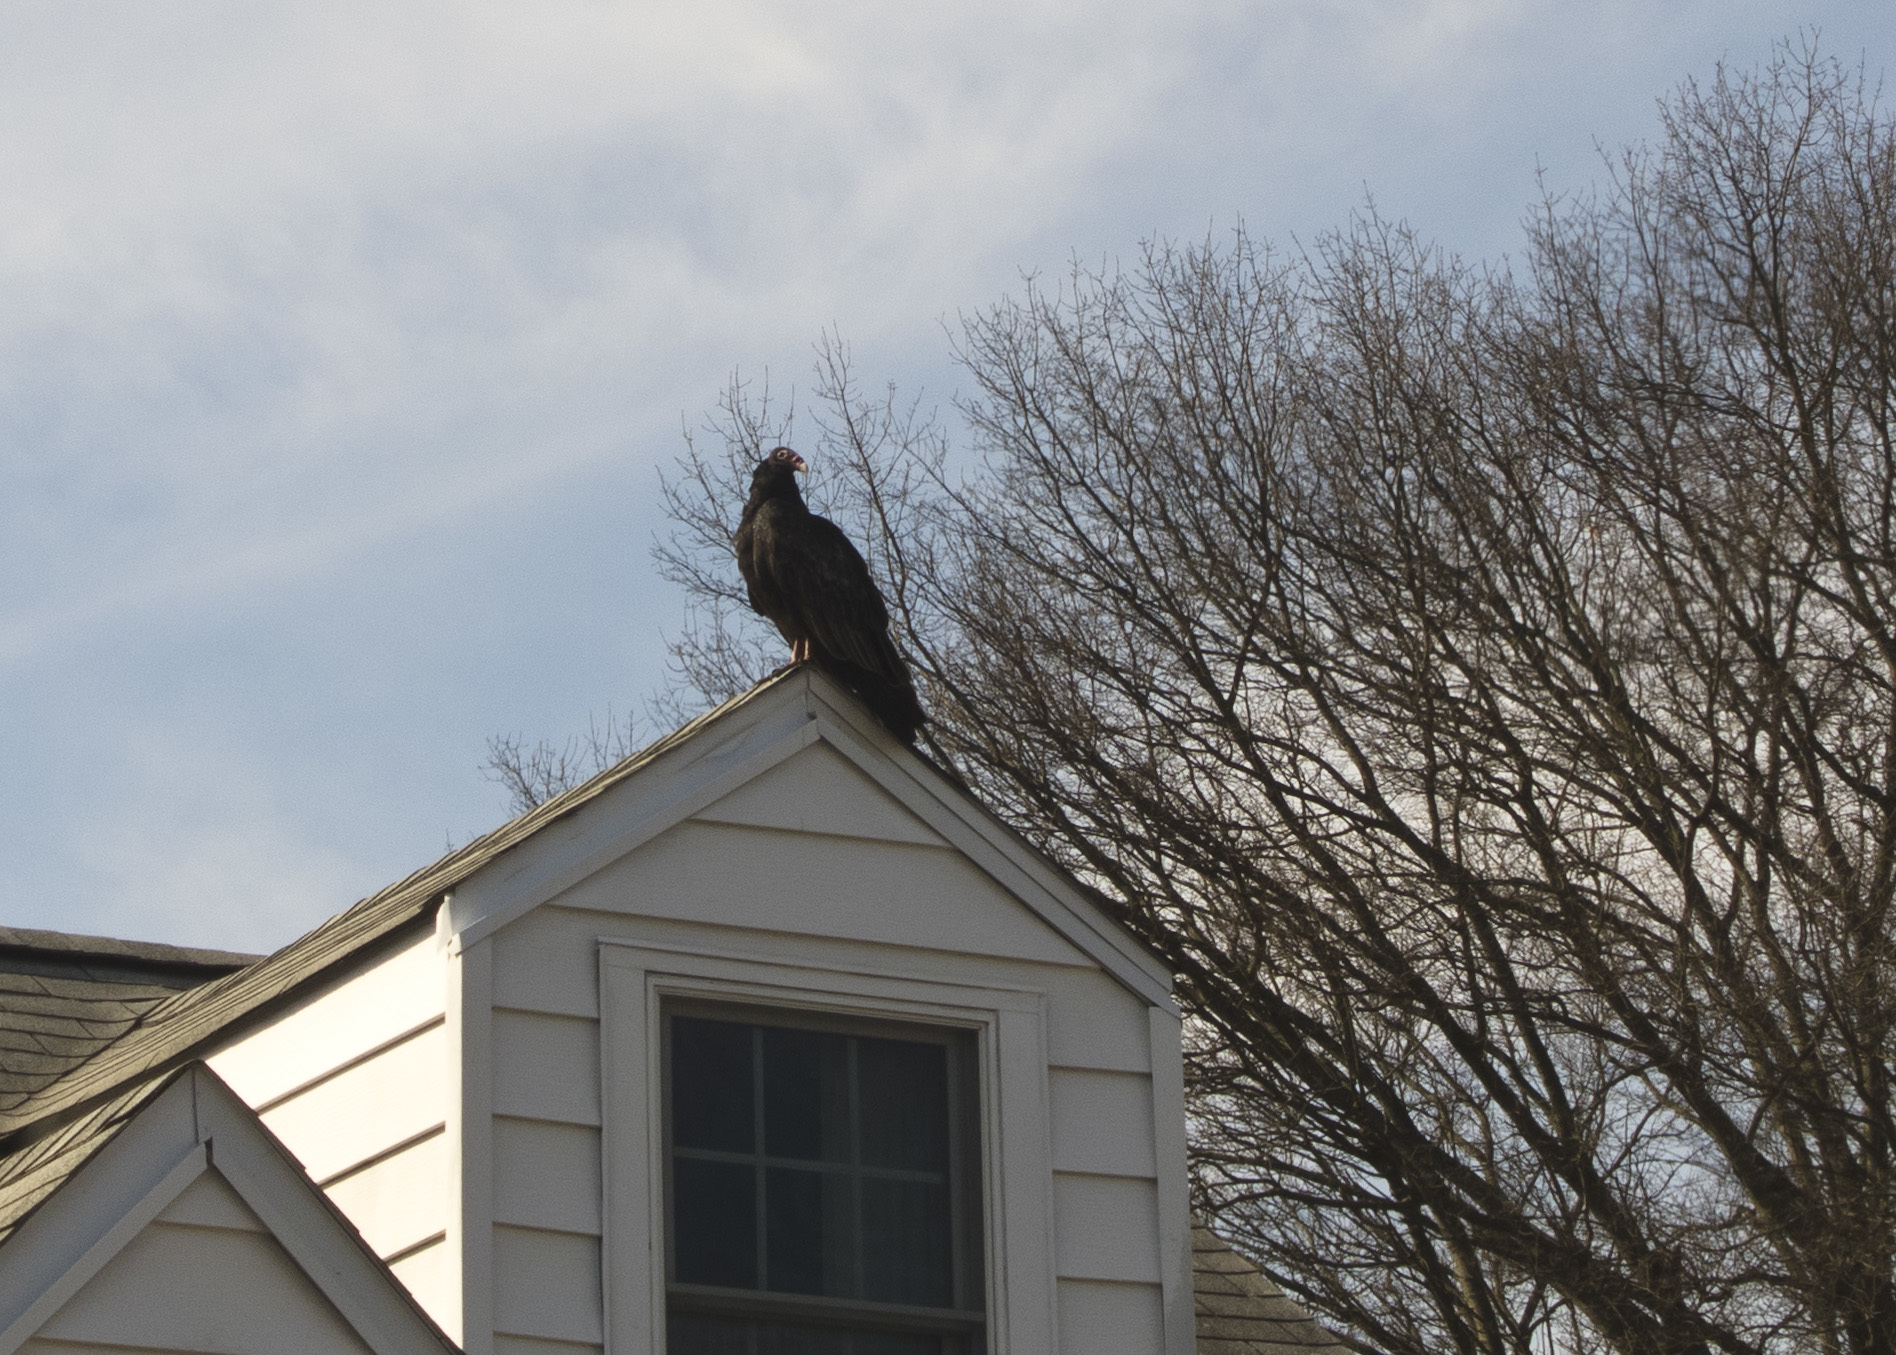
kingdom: Animalia
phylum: Chordata
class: Aves
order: Accipitriformes
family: Cathartidae
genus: Cathartes
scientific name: Cathartes aura
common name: Turkey vulture
